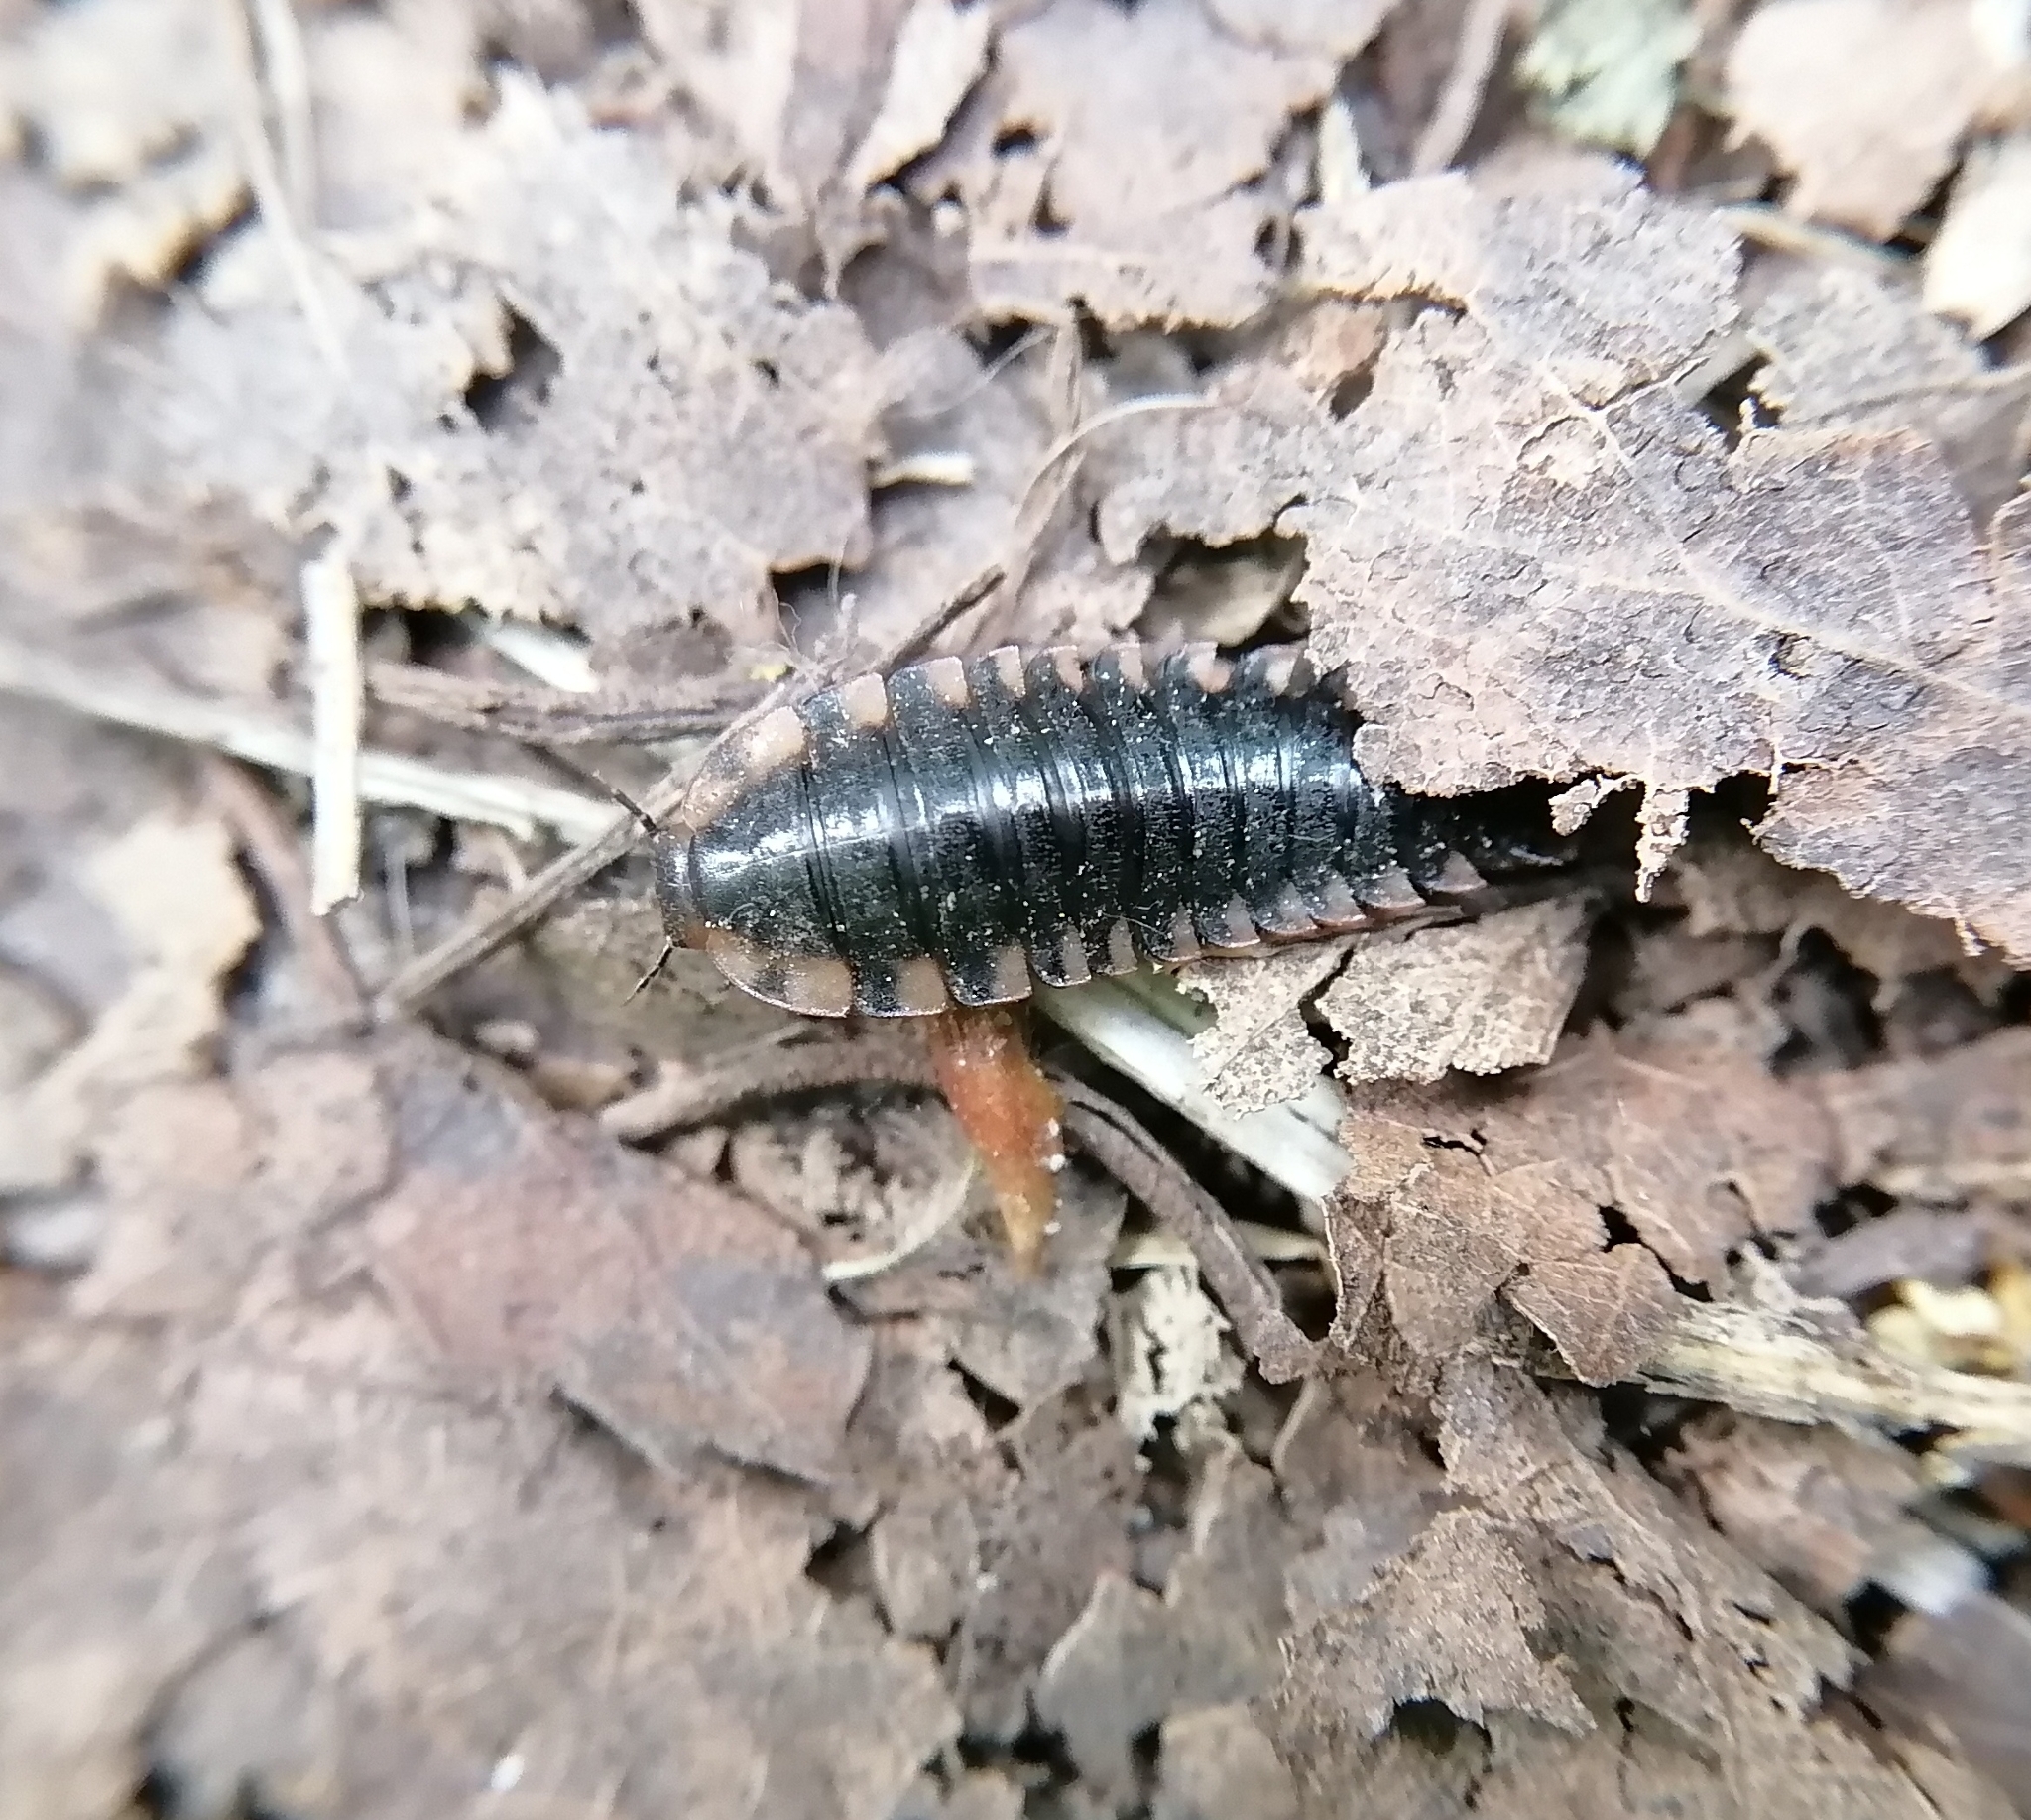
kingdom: Animalia
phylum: Arthropoda
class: Insecta
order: Coleoptera
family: Staphylinidae
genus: Oiceoptoma
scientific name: Oiceoptoma thoracicum
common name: Red-breasted carrion beetle
